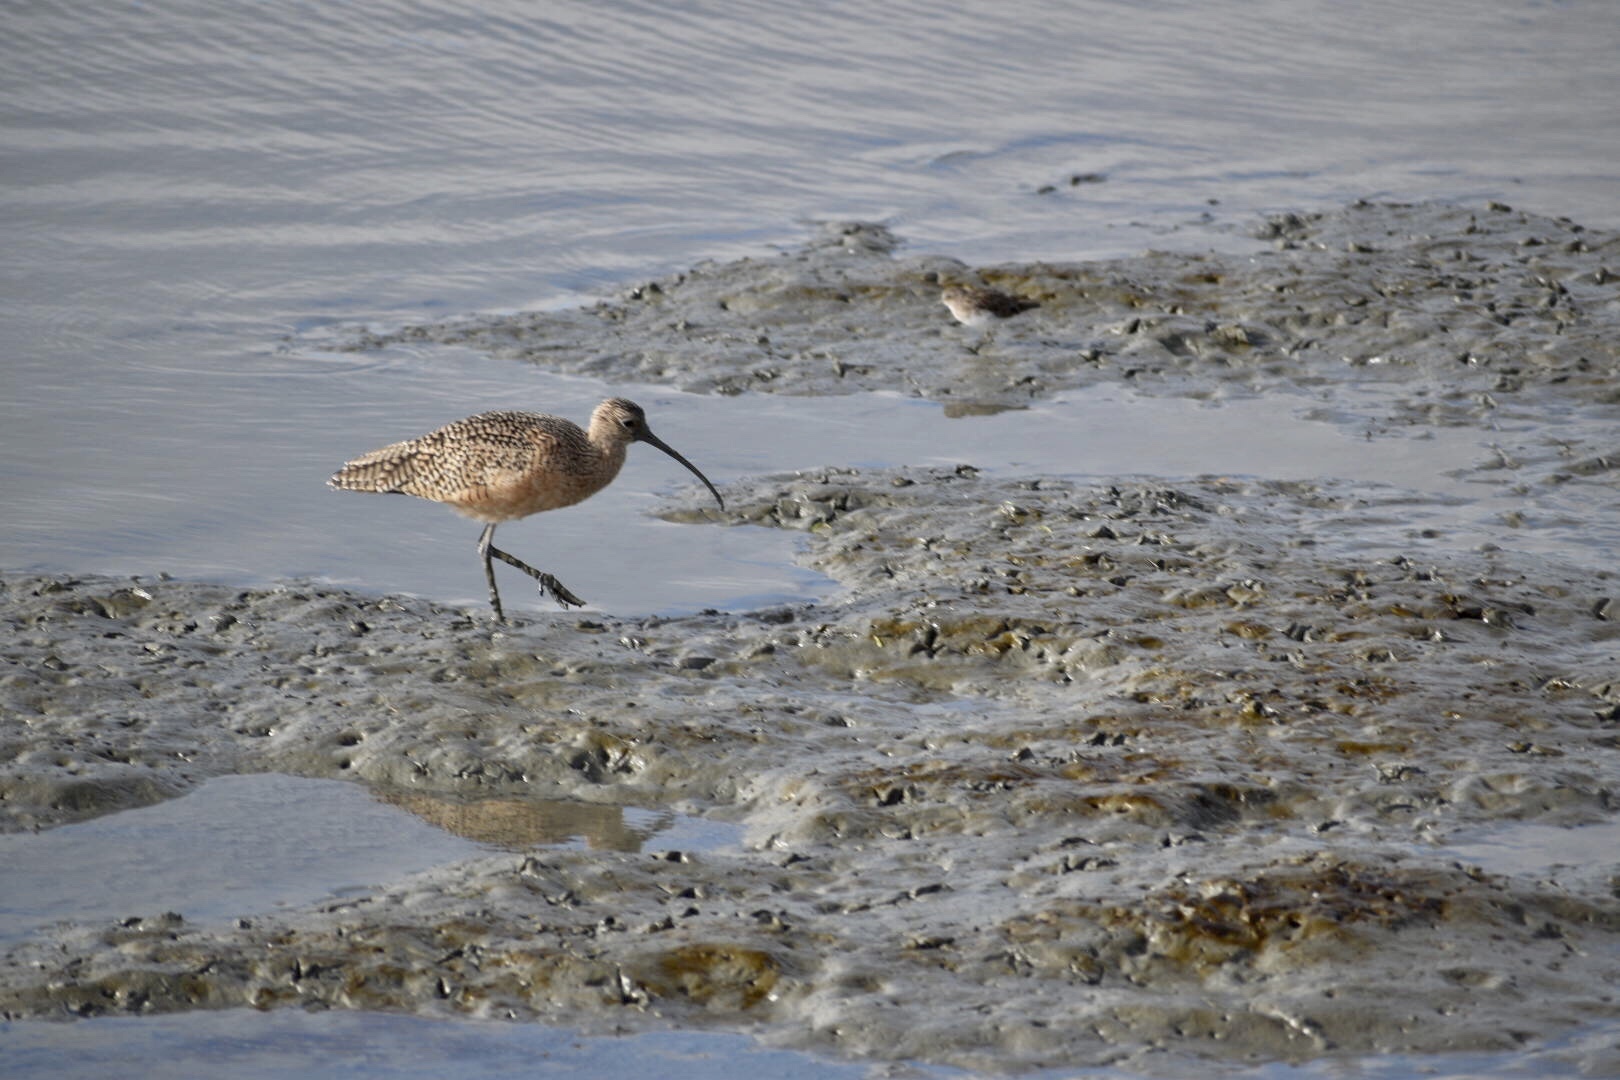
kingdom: Animalia
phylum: Chordata
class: Aves
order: Charadriiformes
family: Scolopacidae
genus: Numenius
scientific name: Numenius americanus
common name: Long-billed curlew
